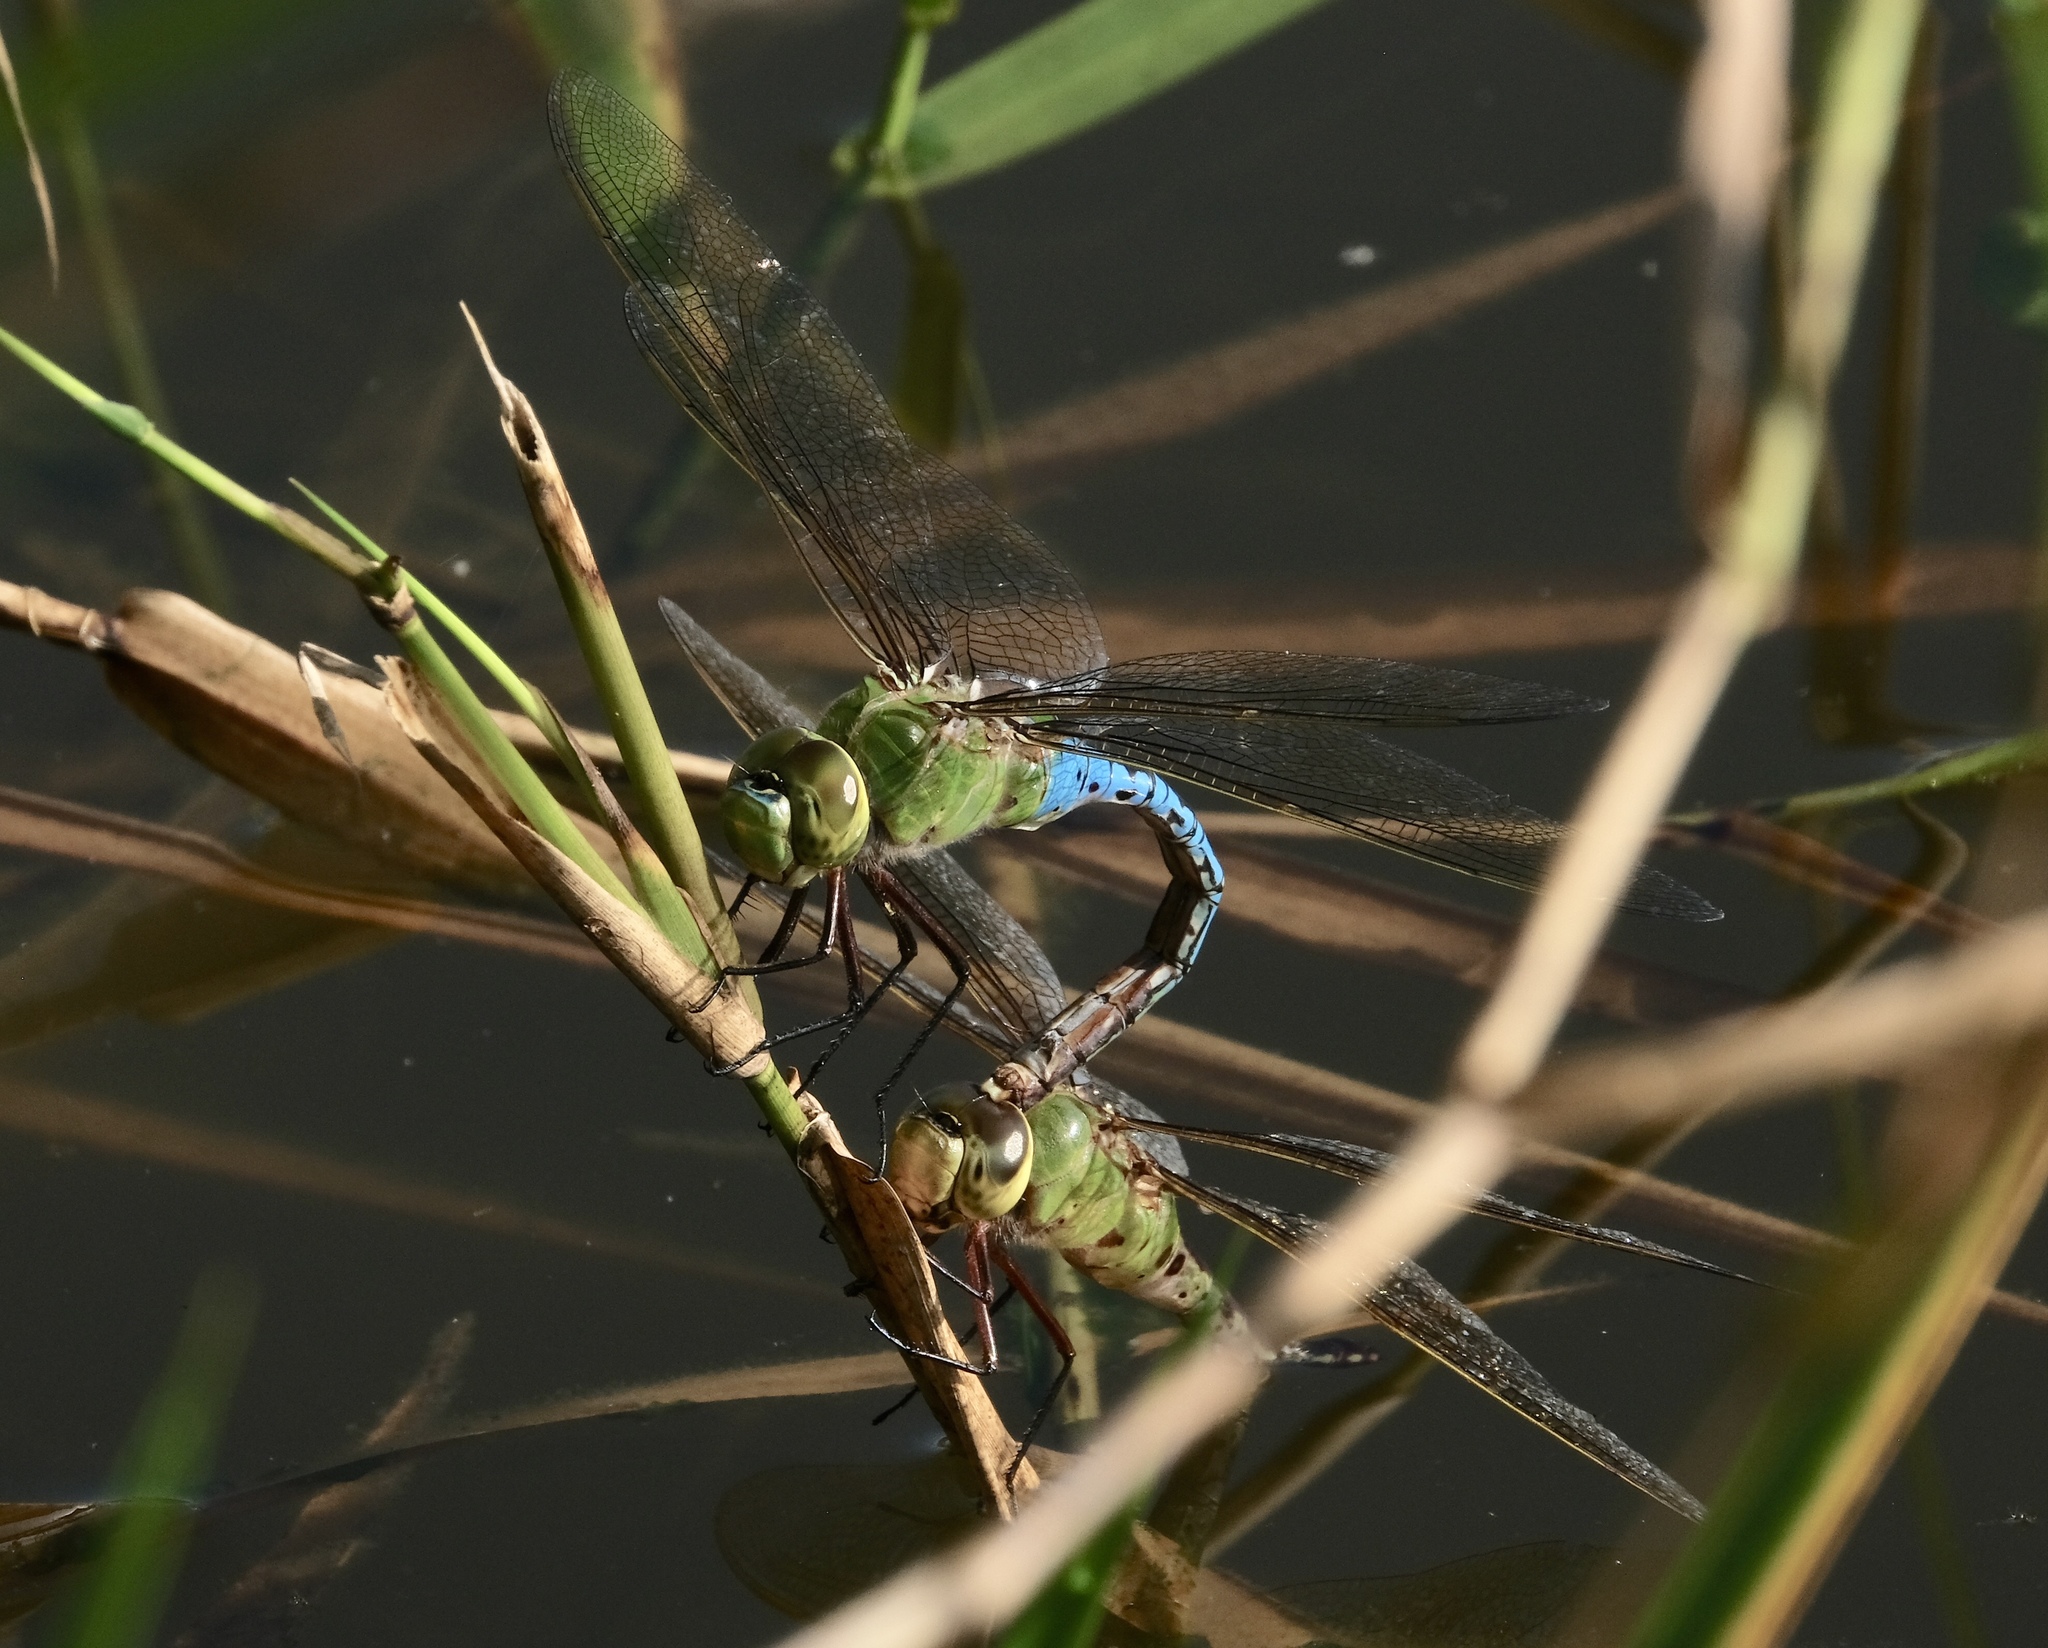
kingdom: Animalia
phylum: Arthropoda
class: Insecta
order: Odonata
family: Aeshnidae
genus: Anax
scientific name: Anax junius
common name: Common green darner
